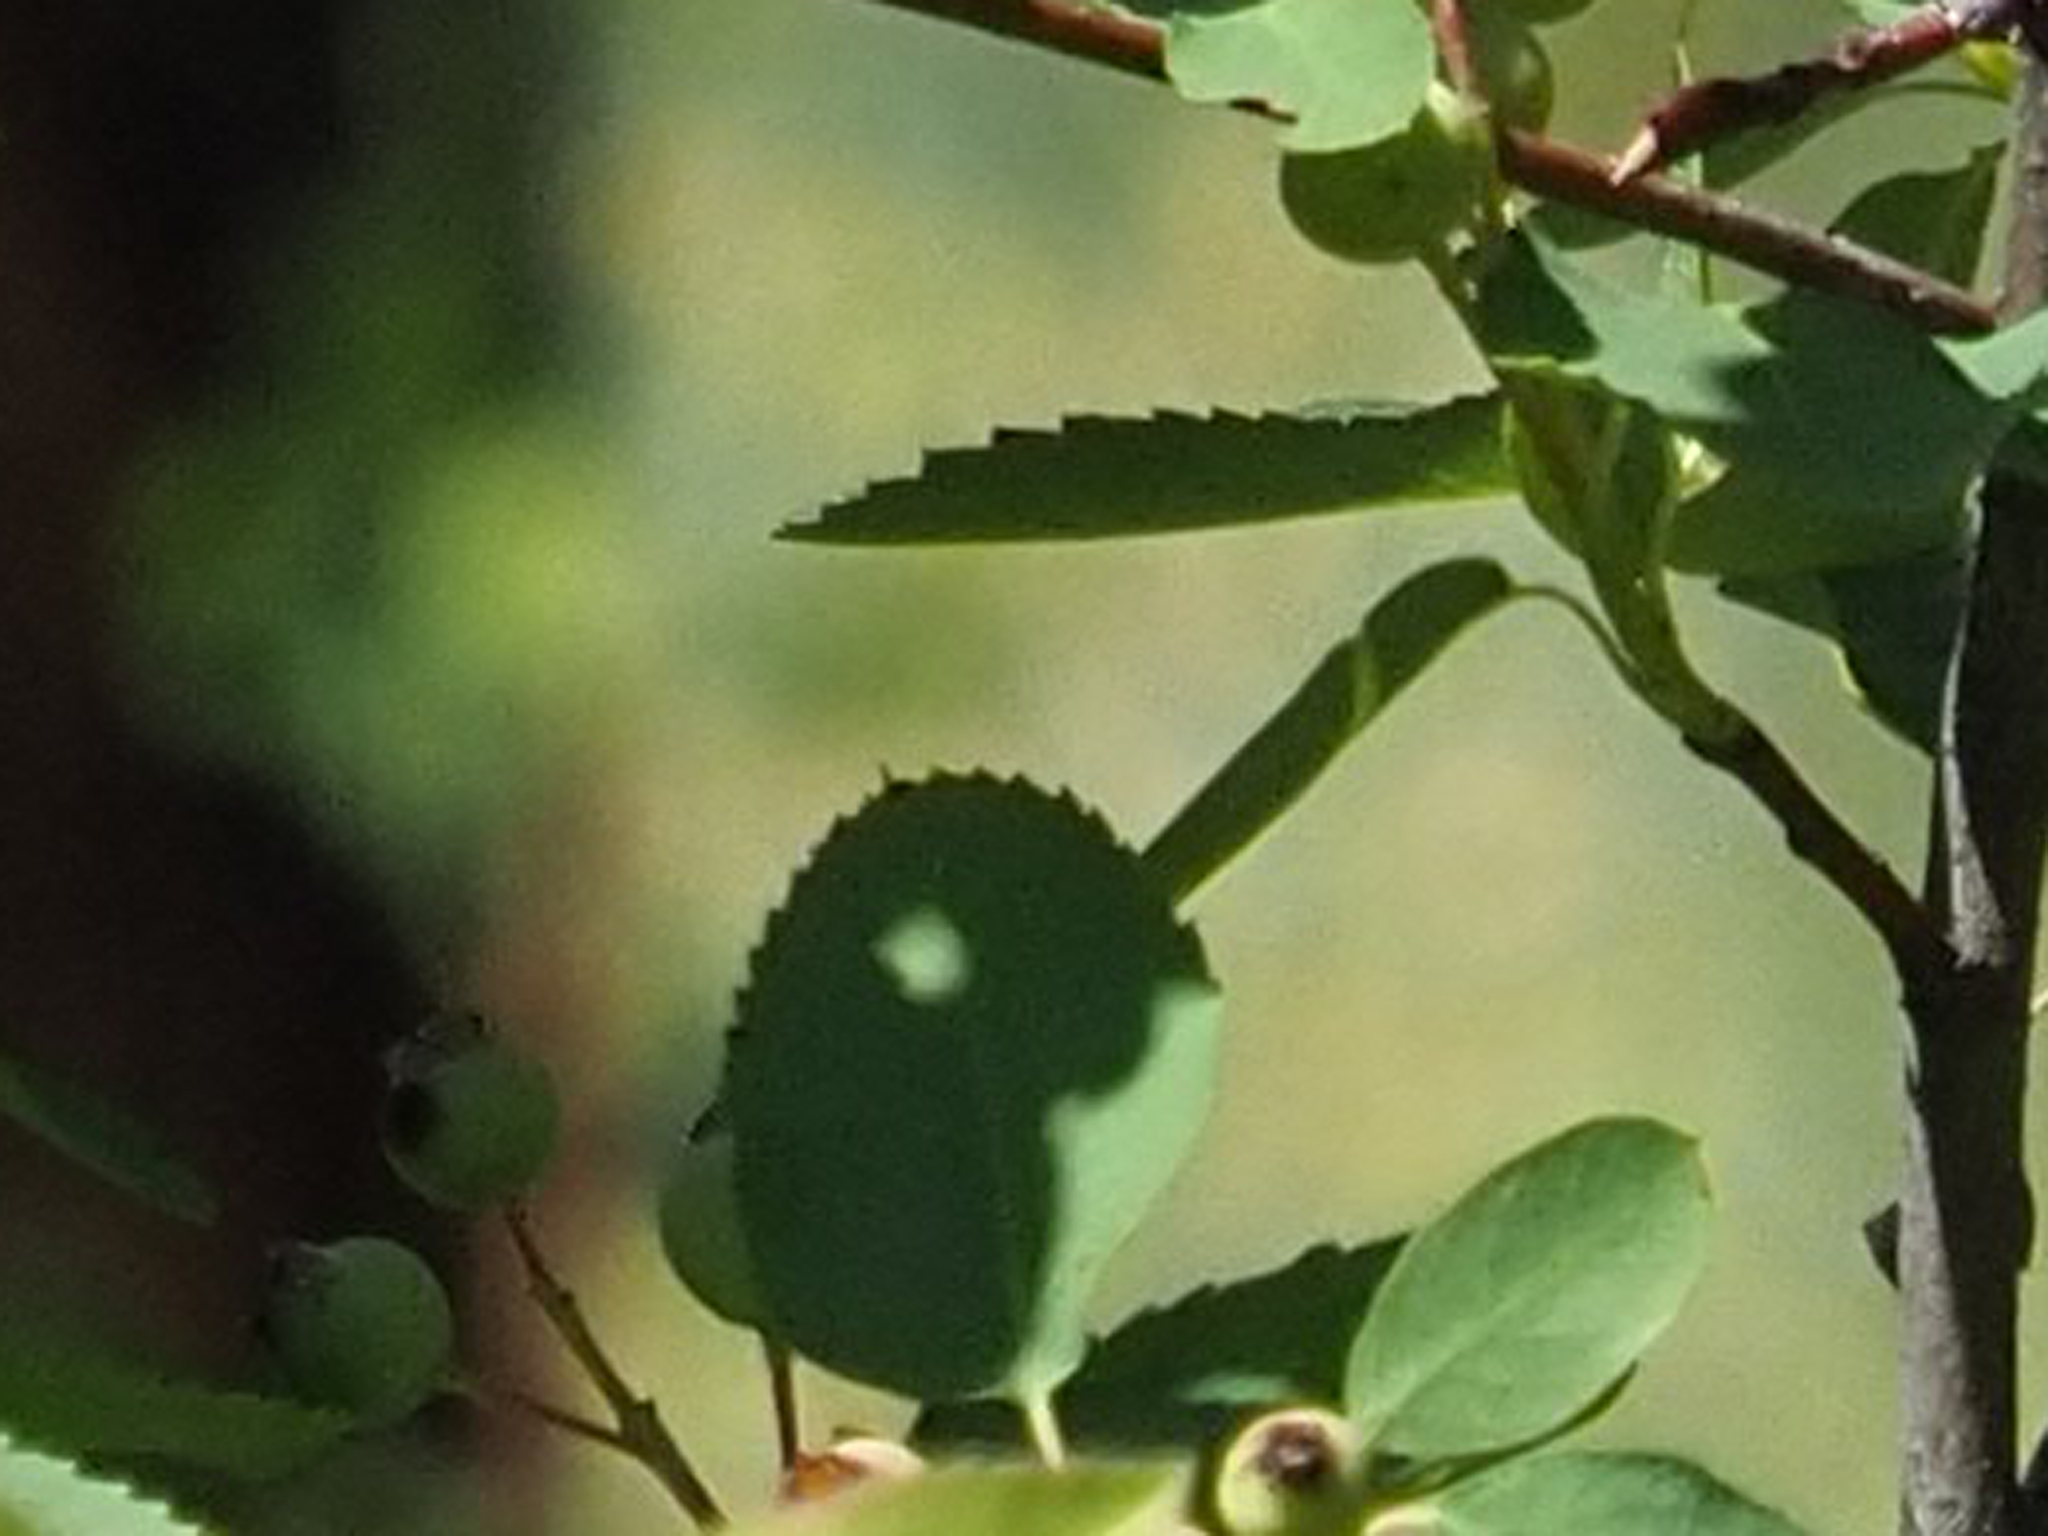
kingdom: Plantae
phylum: Tracheophyta
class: Magnoliopsida
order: Rosales
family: Rosaceae
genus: Amelanchier
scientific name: Amelanchier alnifolia
